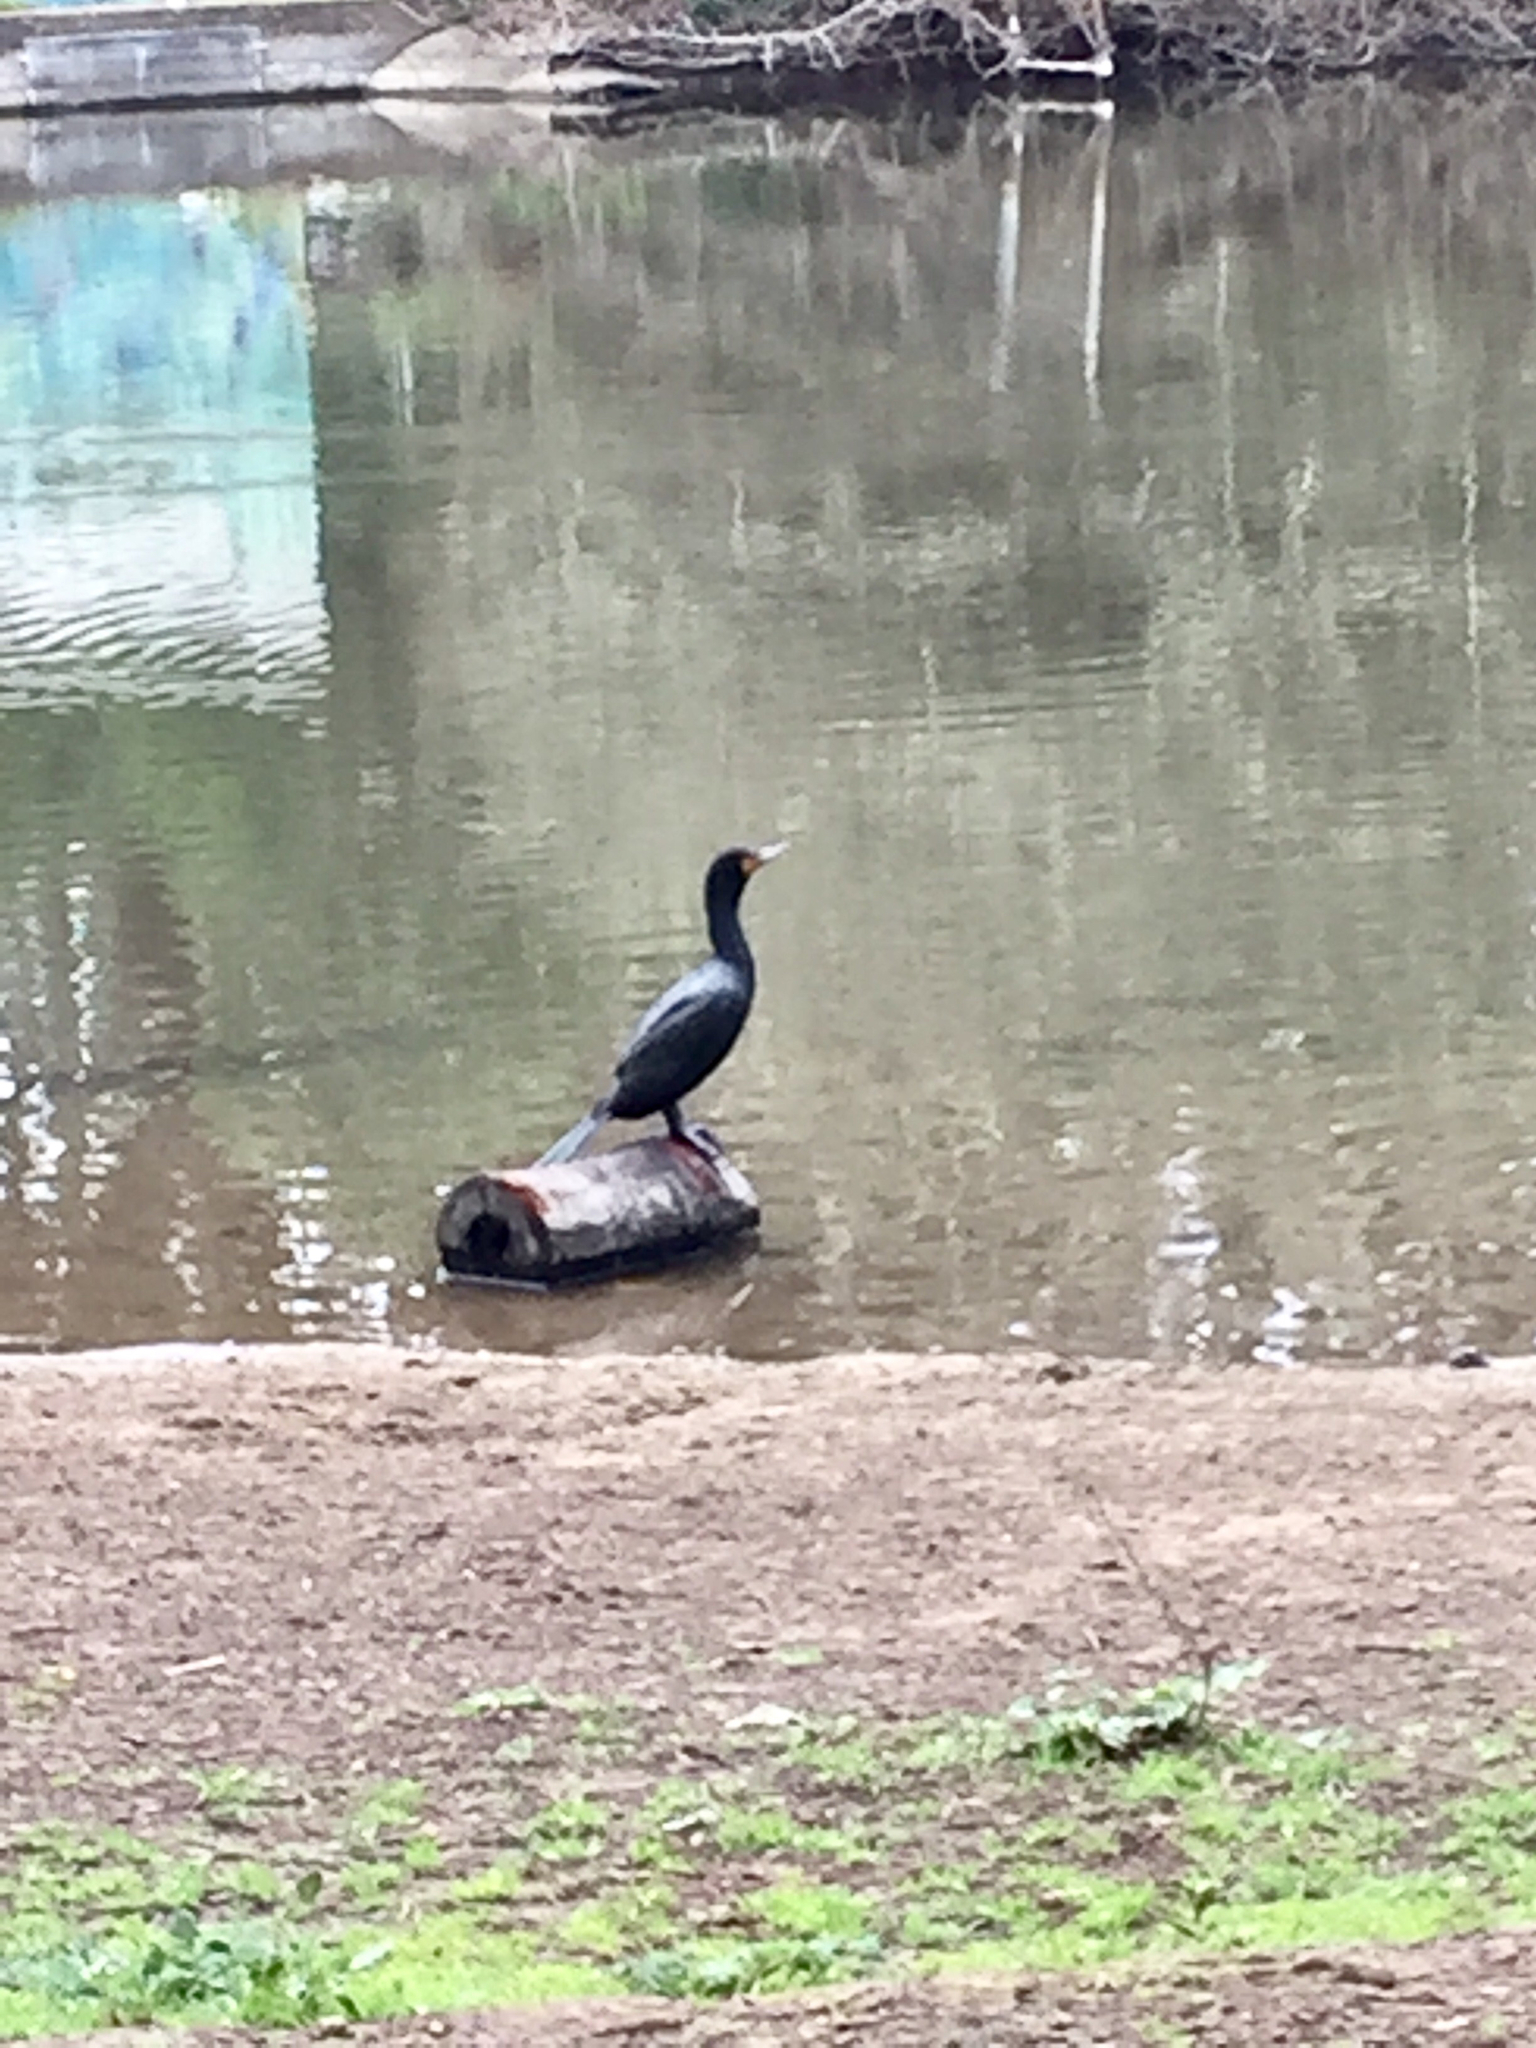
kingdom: Animalia
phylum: Chordata
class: Aves
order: Suliformes
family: Phalacrocoracidae
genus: Phalacrocorax
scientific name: Phalacrocorax auritus
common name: Double-crested cormorant
